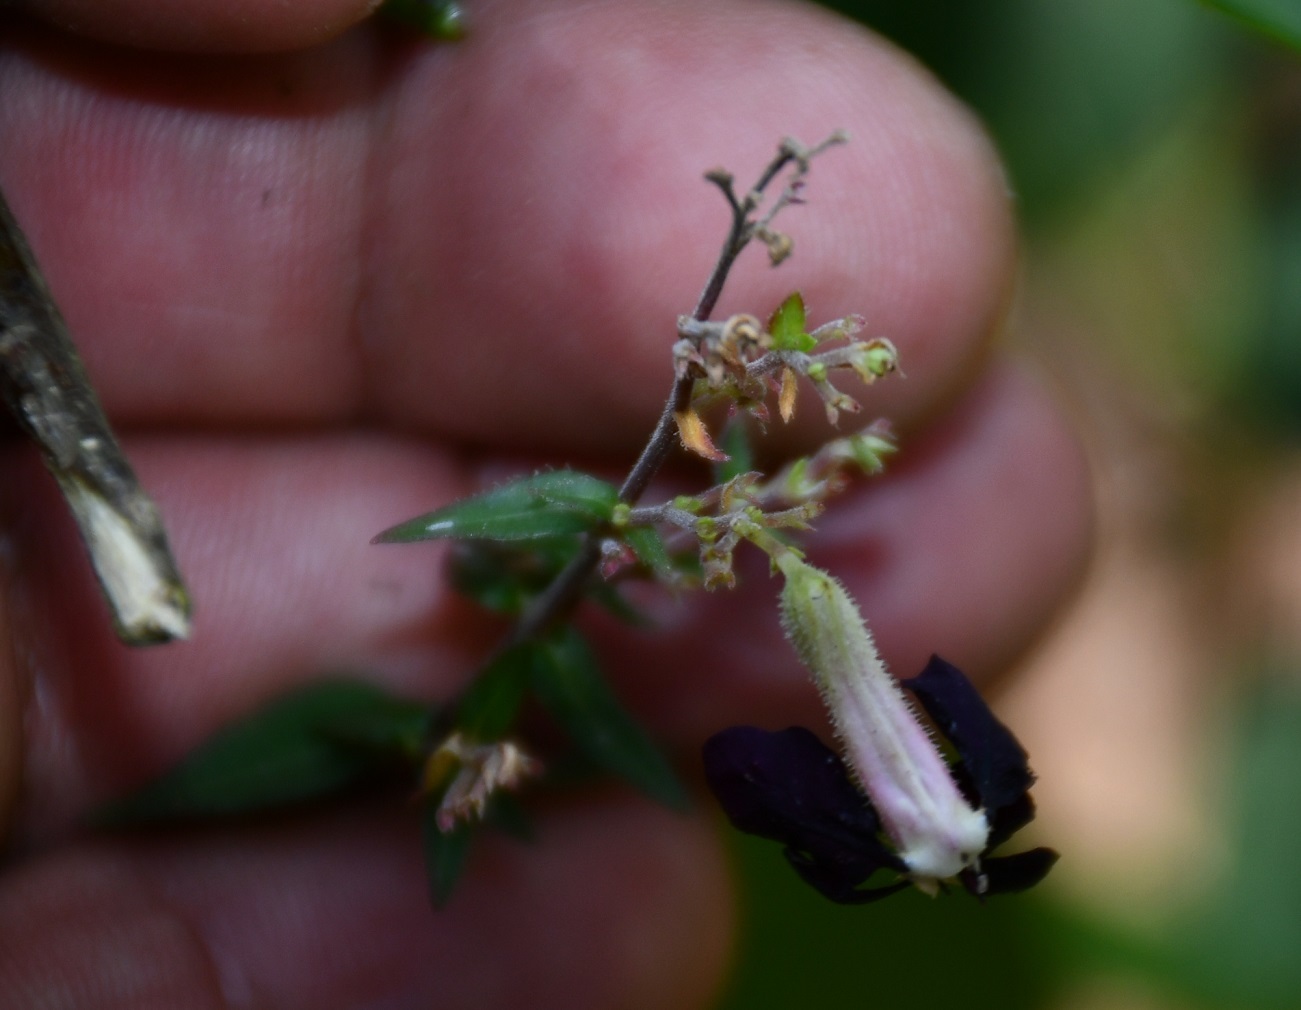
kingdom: Plantae
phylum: Tracheophyta
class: Magnoliopsida
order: Myrtales
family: Lythraceae
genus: Cuphea
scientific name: Cuphea avigera
